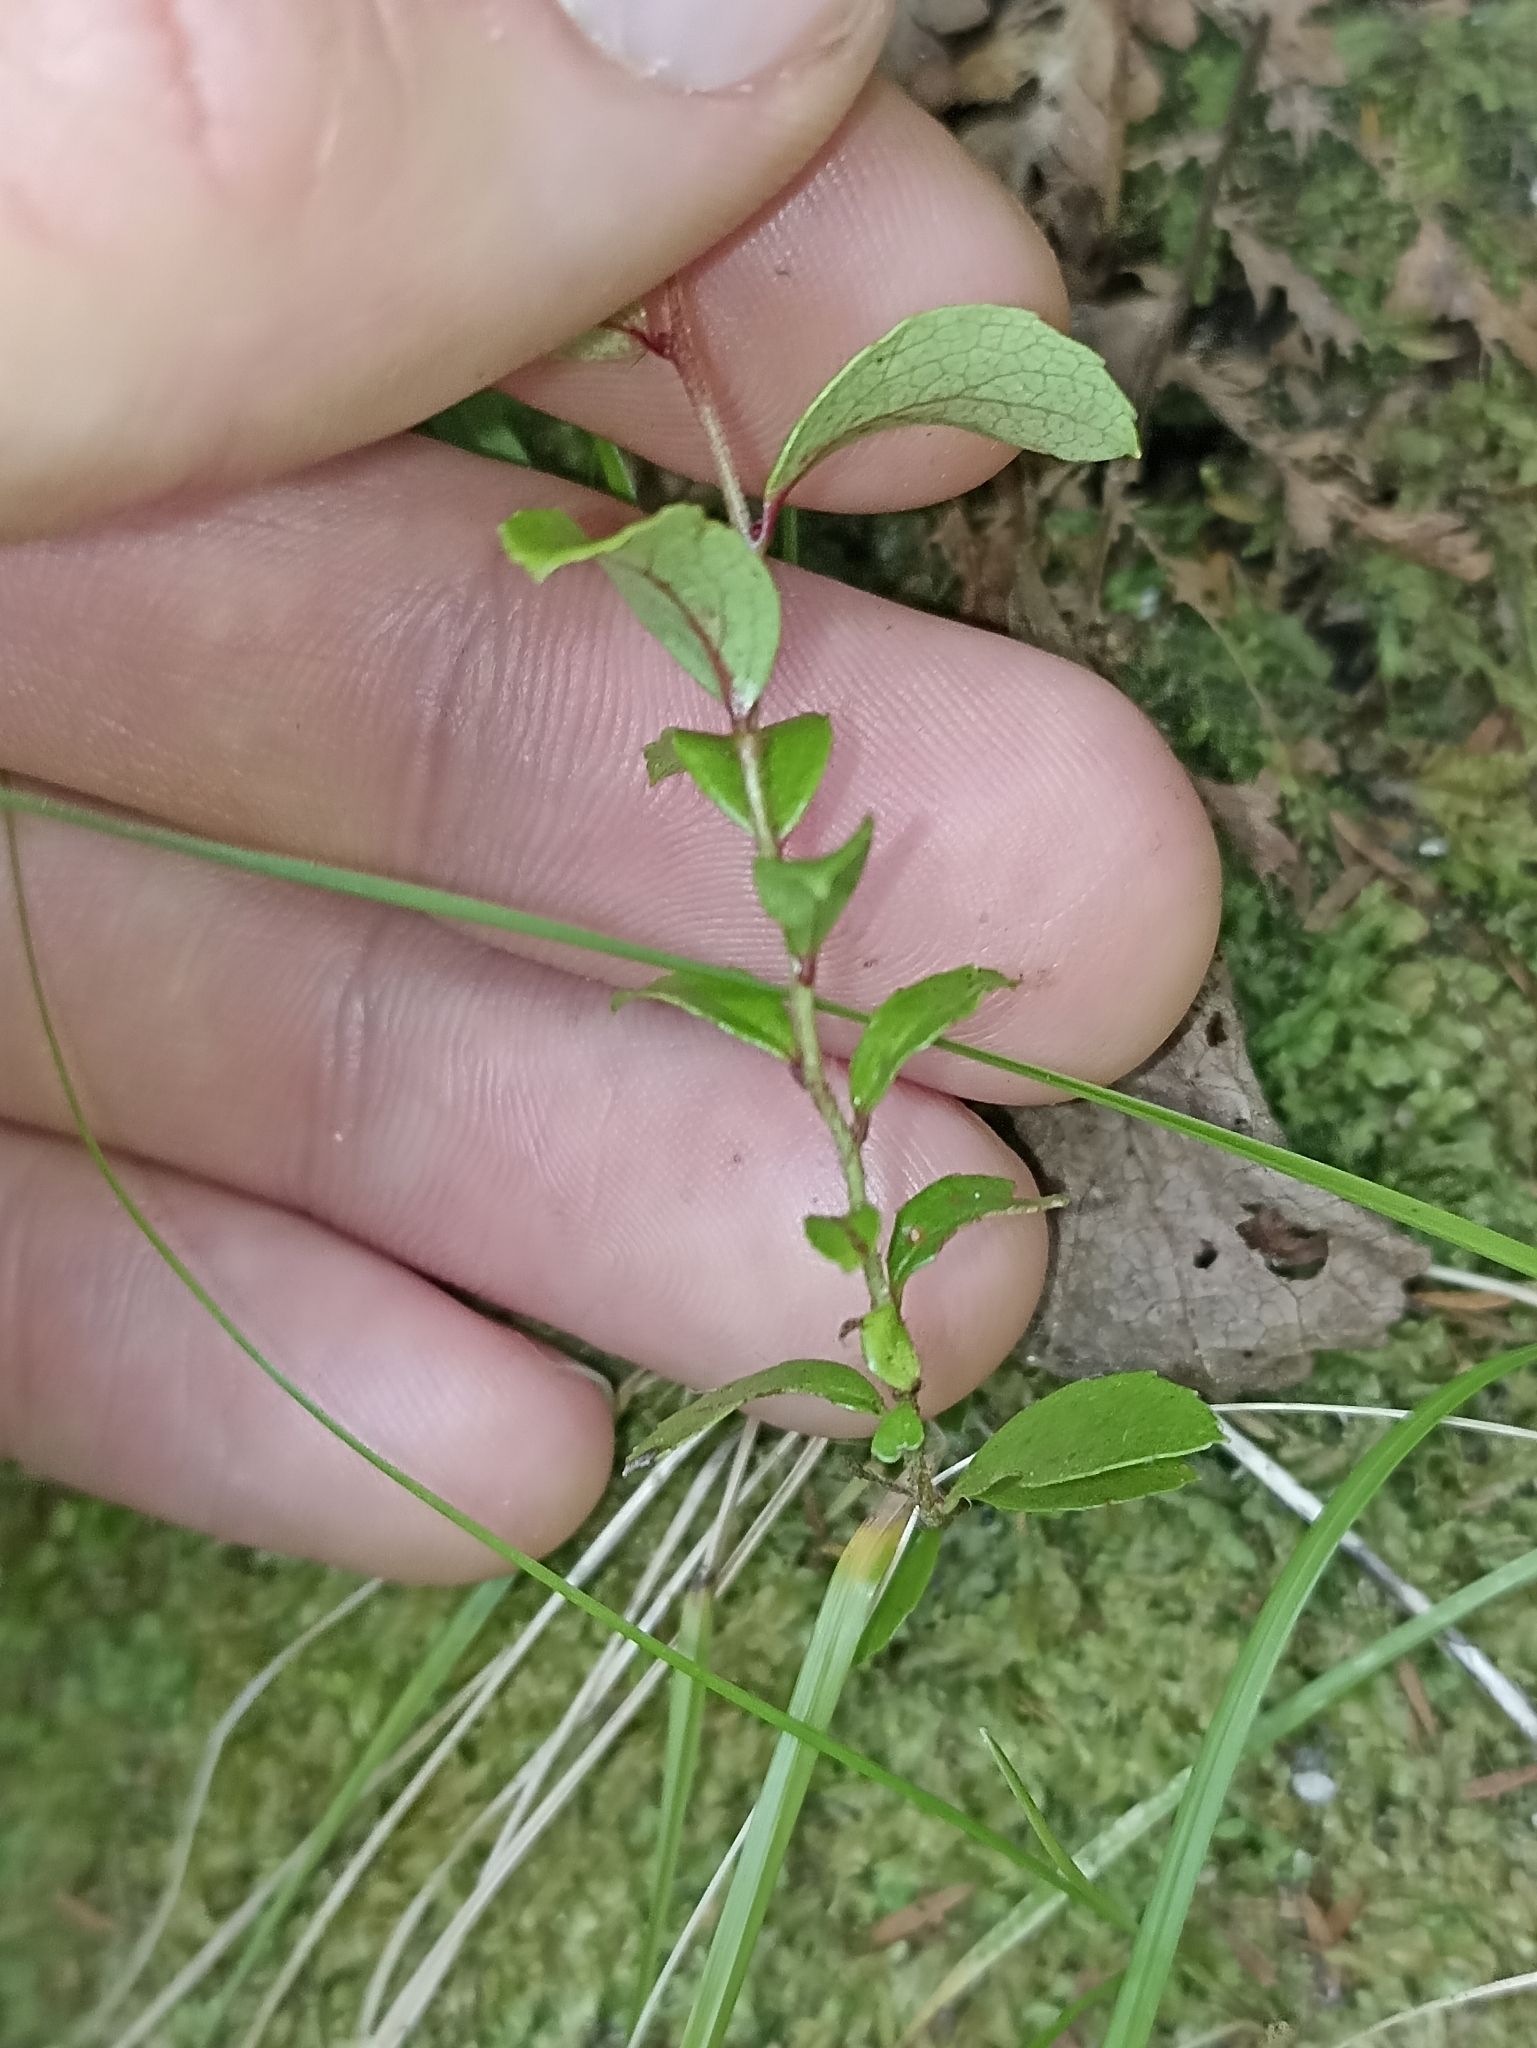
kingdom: Plantae
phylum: Tracheophyta
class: Magnoliopsida
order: Ericales
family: Ericaceae
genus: Gaultheria
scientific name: Gaultheria antipoda
